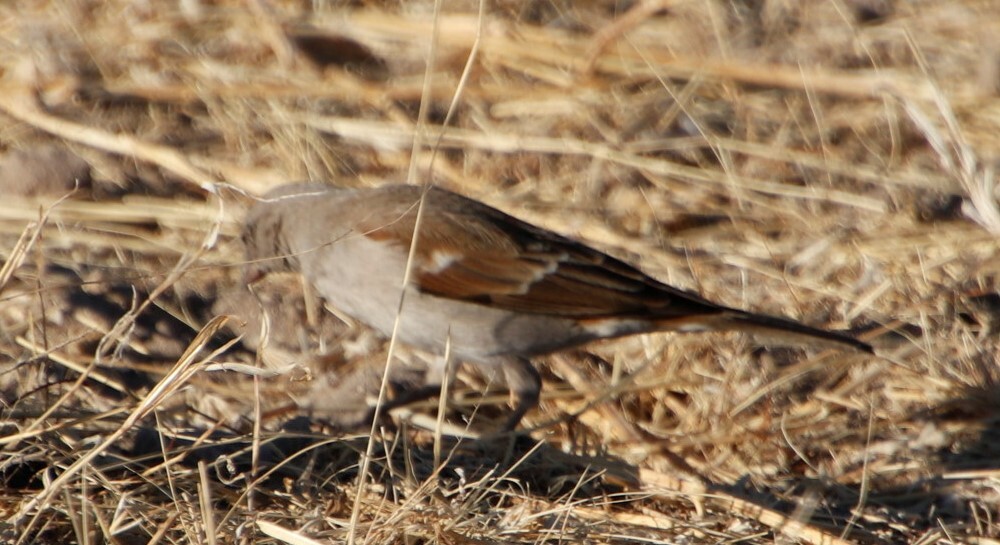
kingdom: Animalia
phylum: Chordata
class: Aves
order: Passeriformes
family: Passeridae
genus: Passer
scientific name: Passer diffusus
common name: Southern grey-headed sparrow
